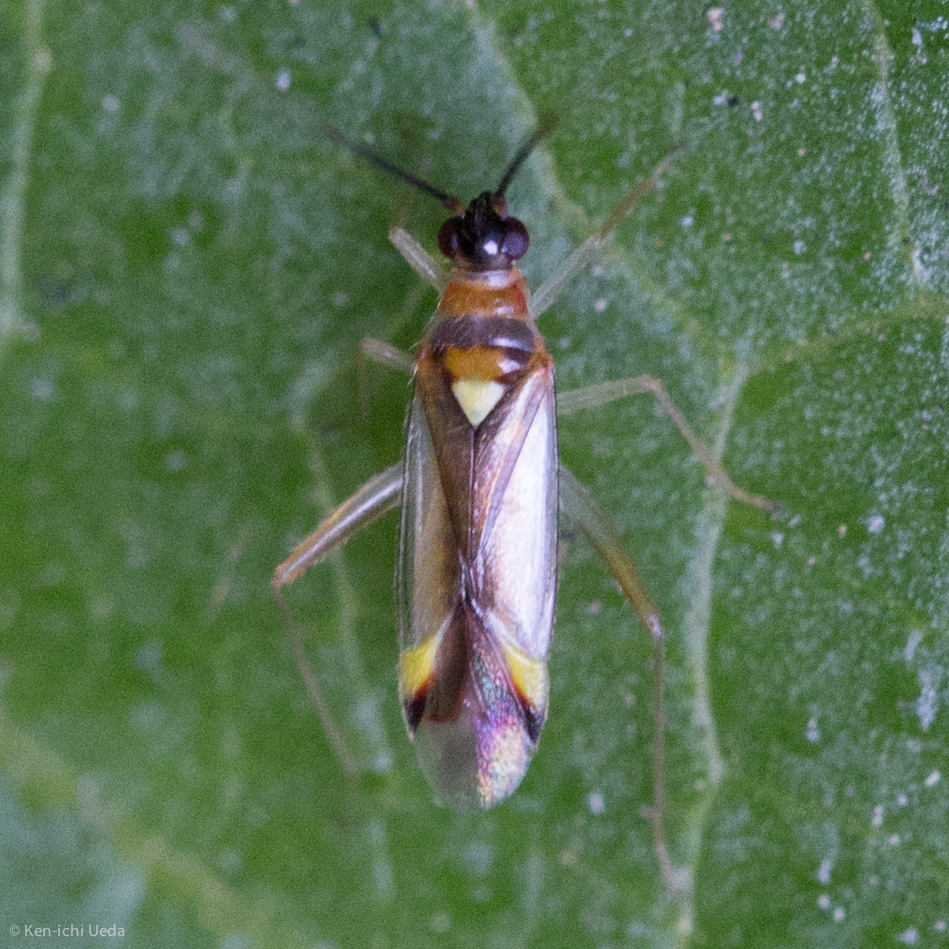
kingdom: Animalia
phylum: Arthropoda
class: Insecta
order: Hemiptera
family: Miridae
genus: Campyloneura
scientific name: Campyloneura virgula
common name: Predatory bug
